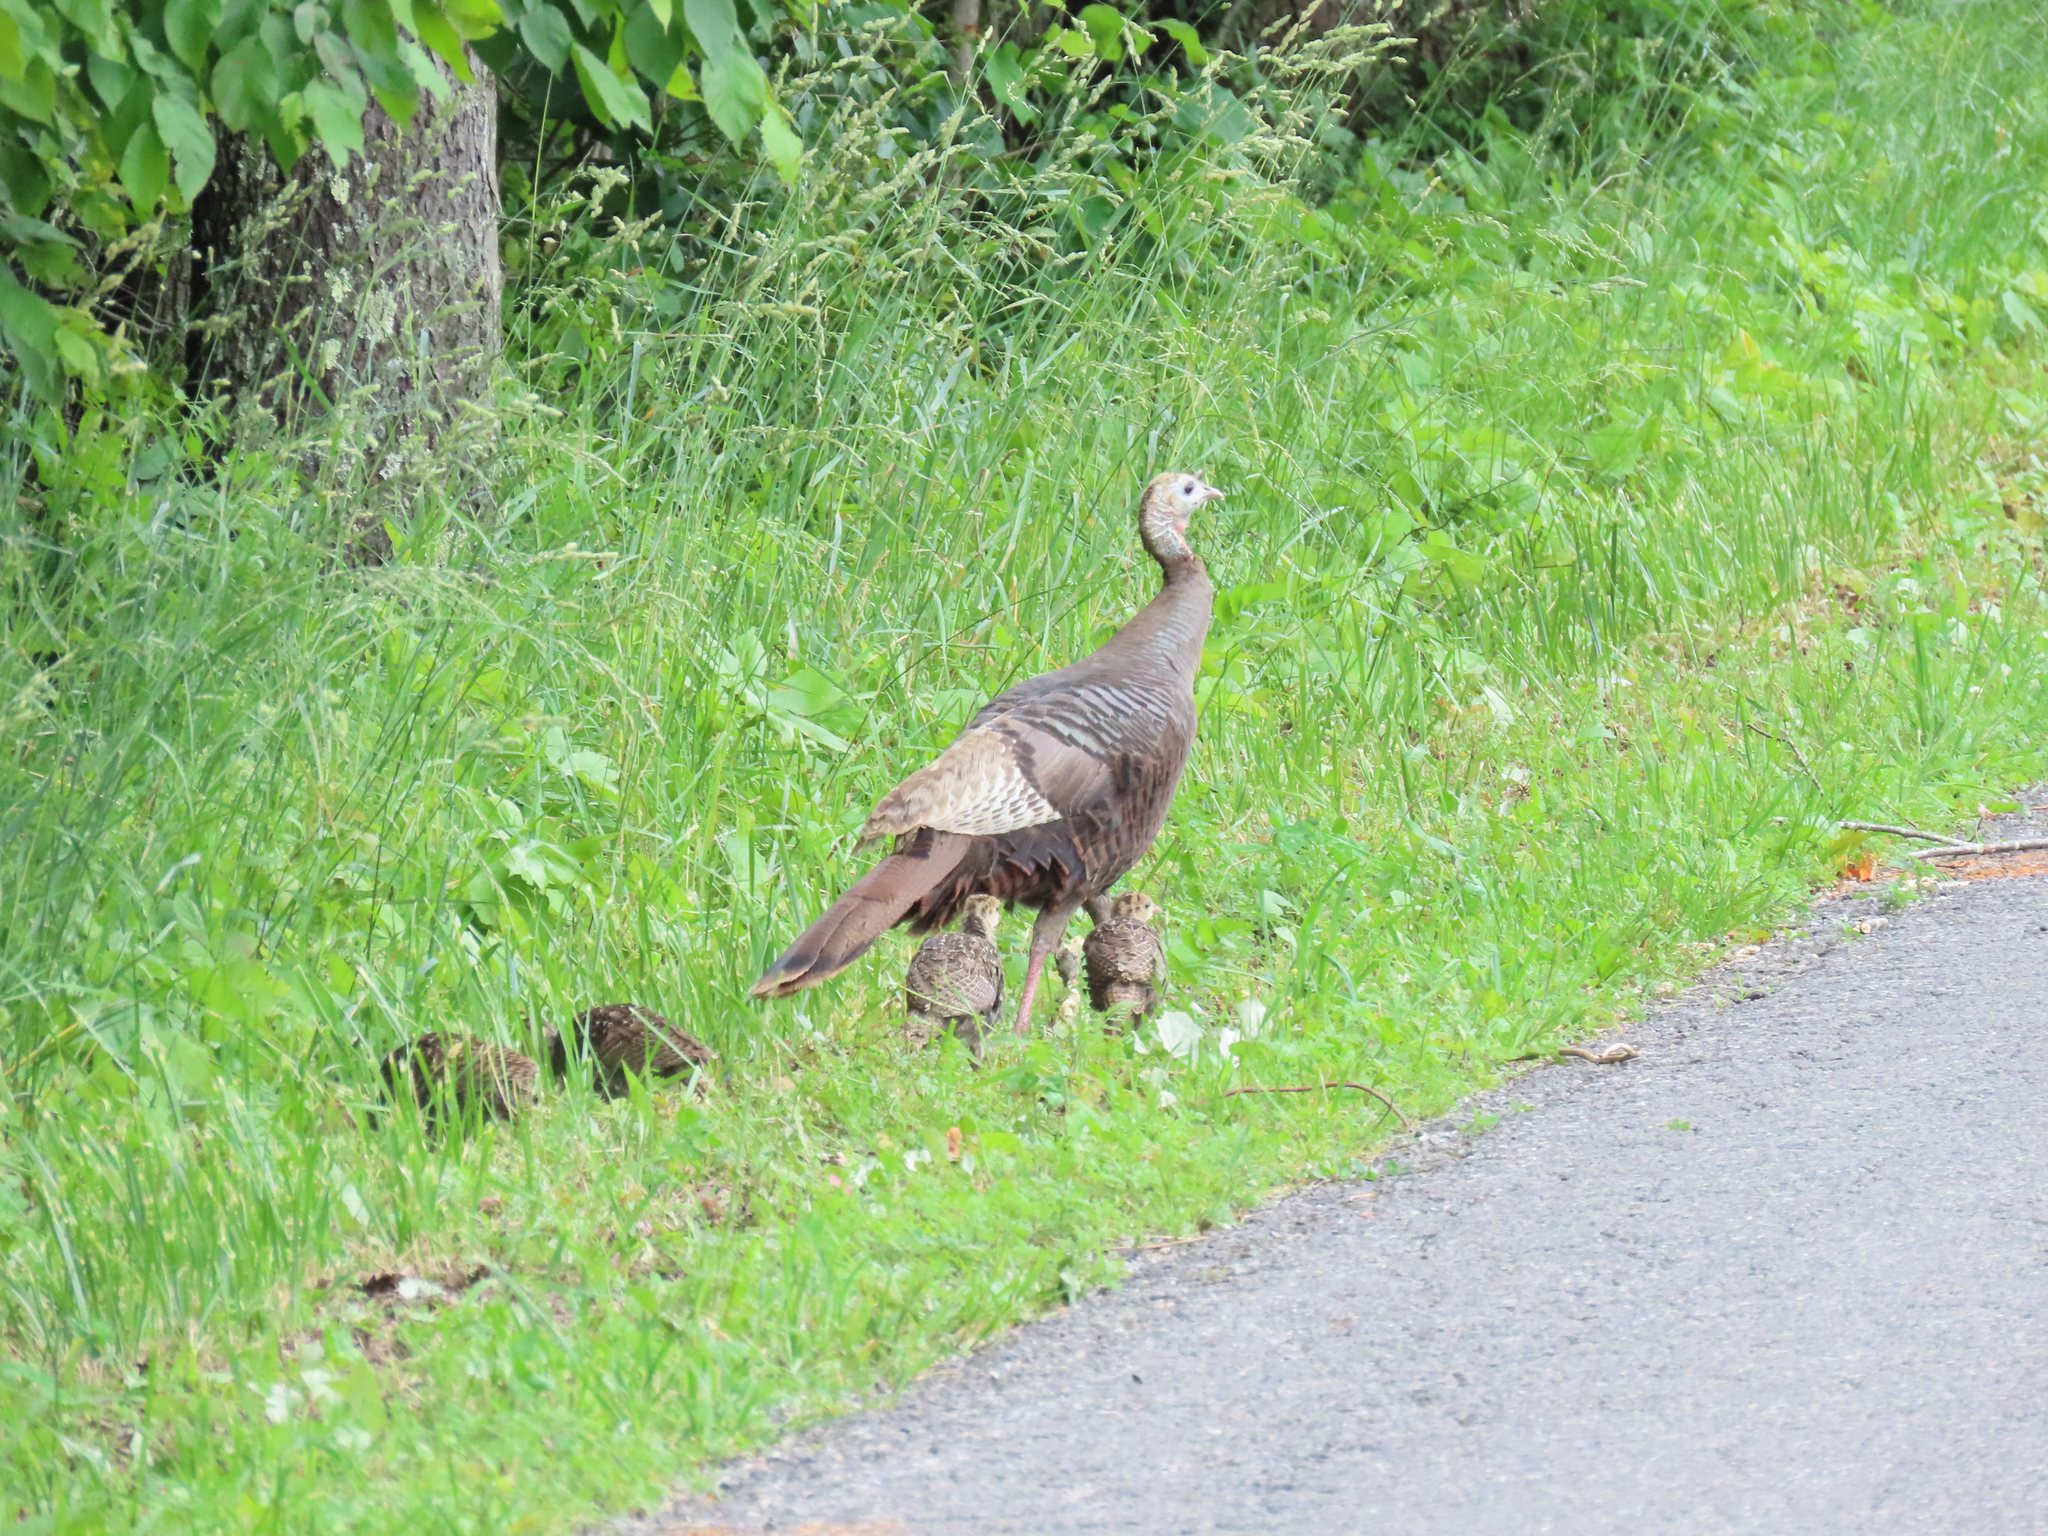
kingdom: Animalia
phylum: Chordata
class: Aves
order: Galliformes
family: Phasianidae
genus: Meleagris
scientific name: Meleagris gallopavo
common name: Wild turkey
